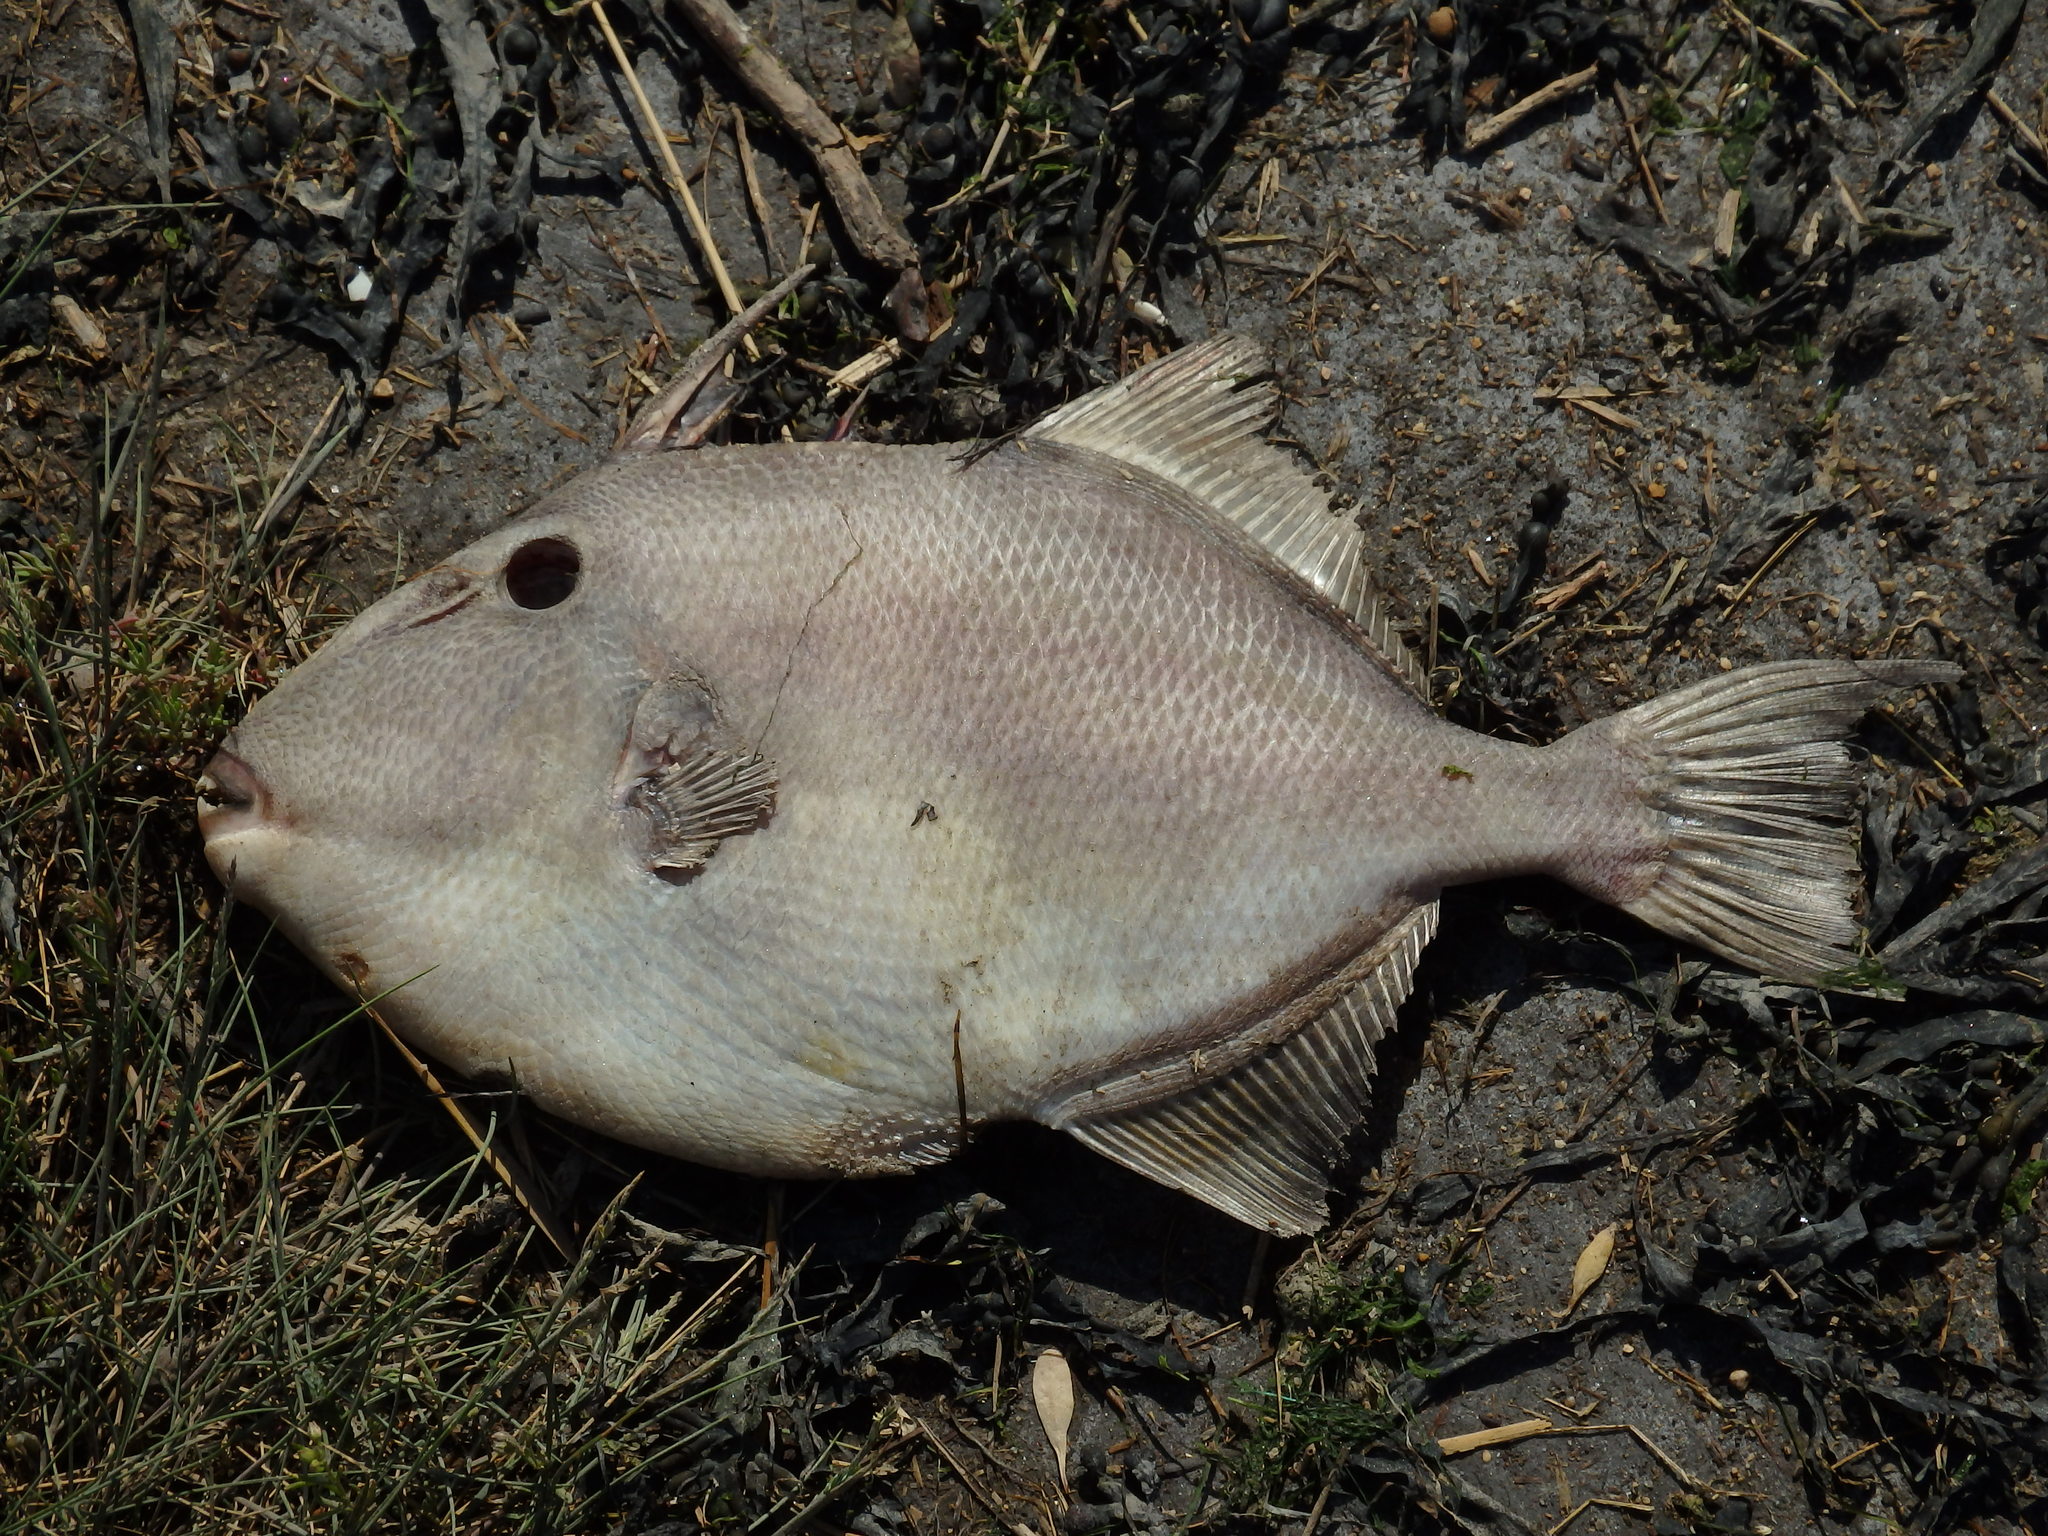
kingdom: Animalia
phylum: Chordata
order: Tetraodontiformes
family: Balistidae
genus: Balistes
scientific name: Balistes capriscus
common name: Grey triggerfish
